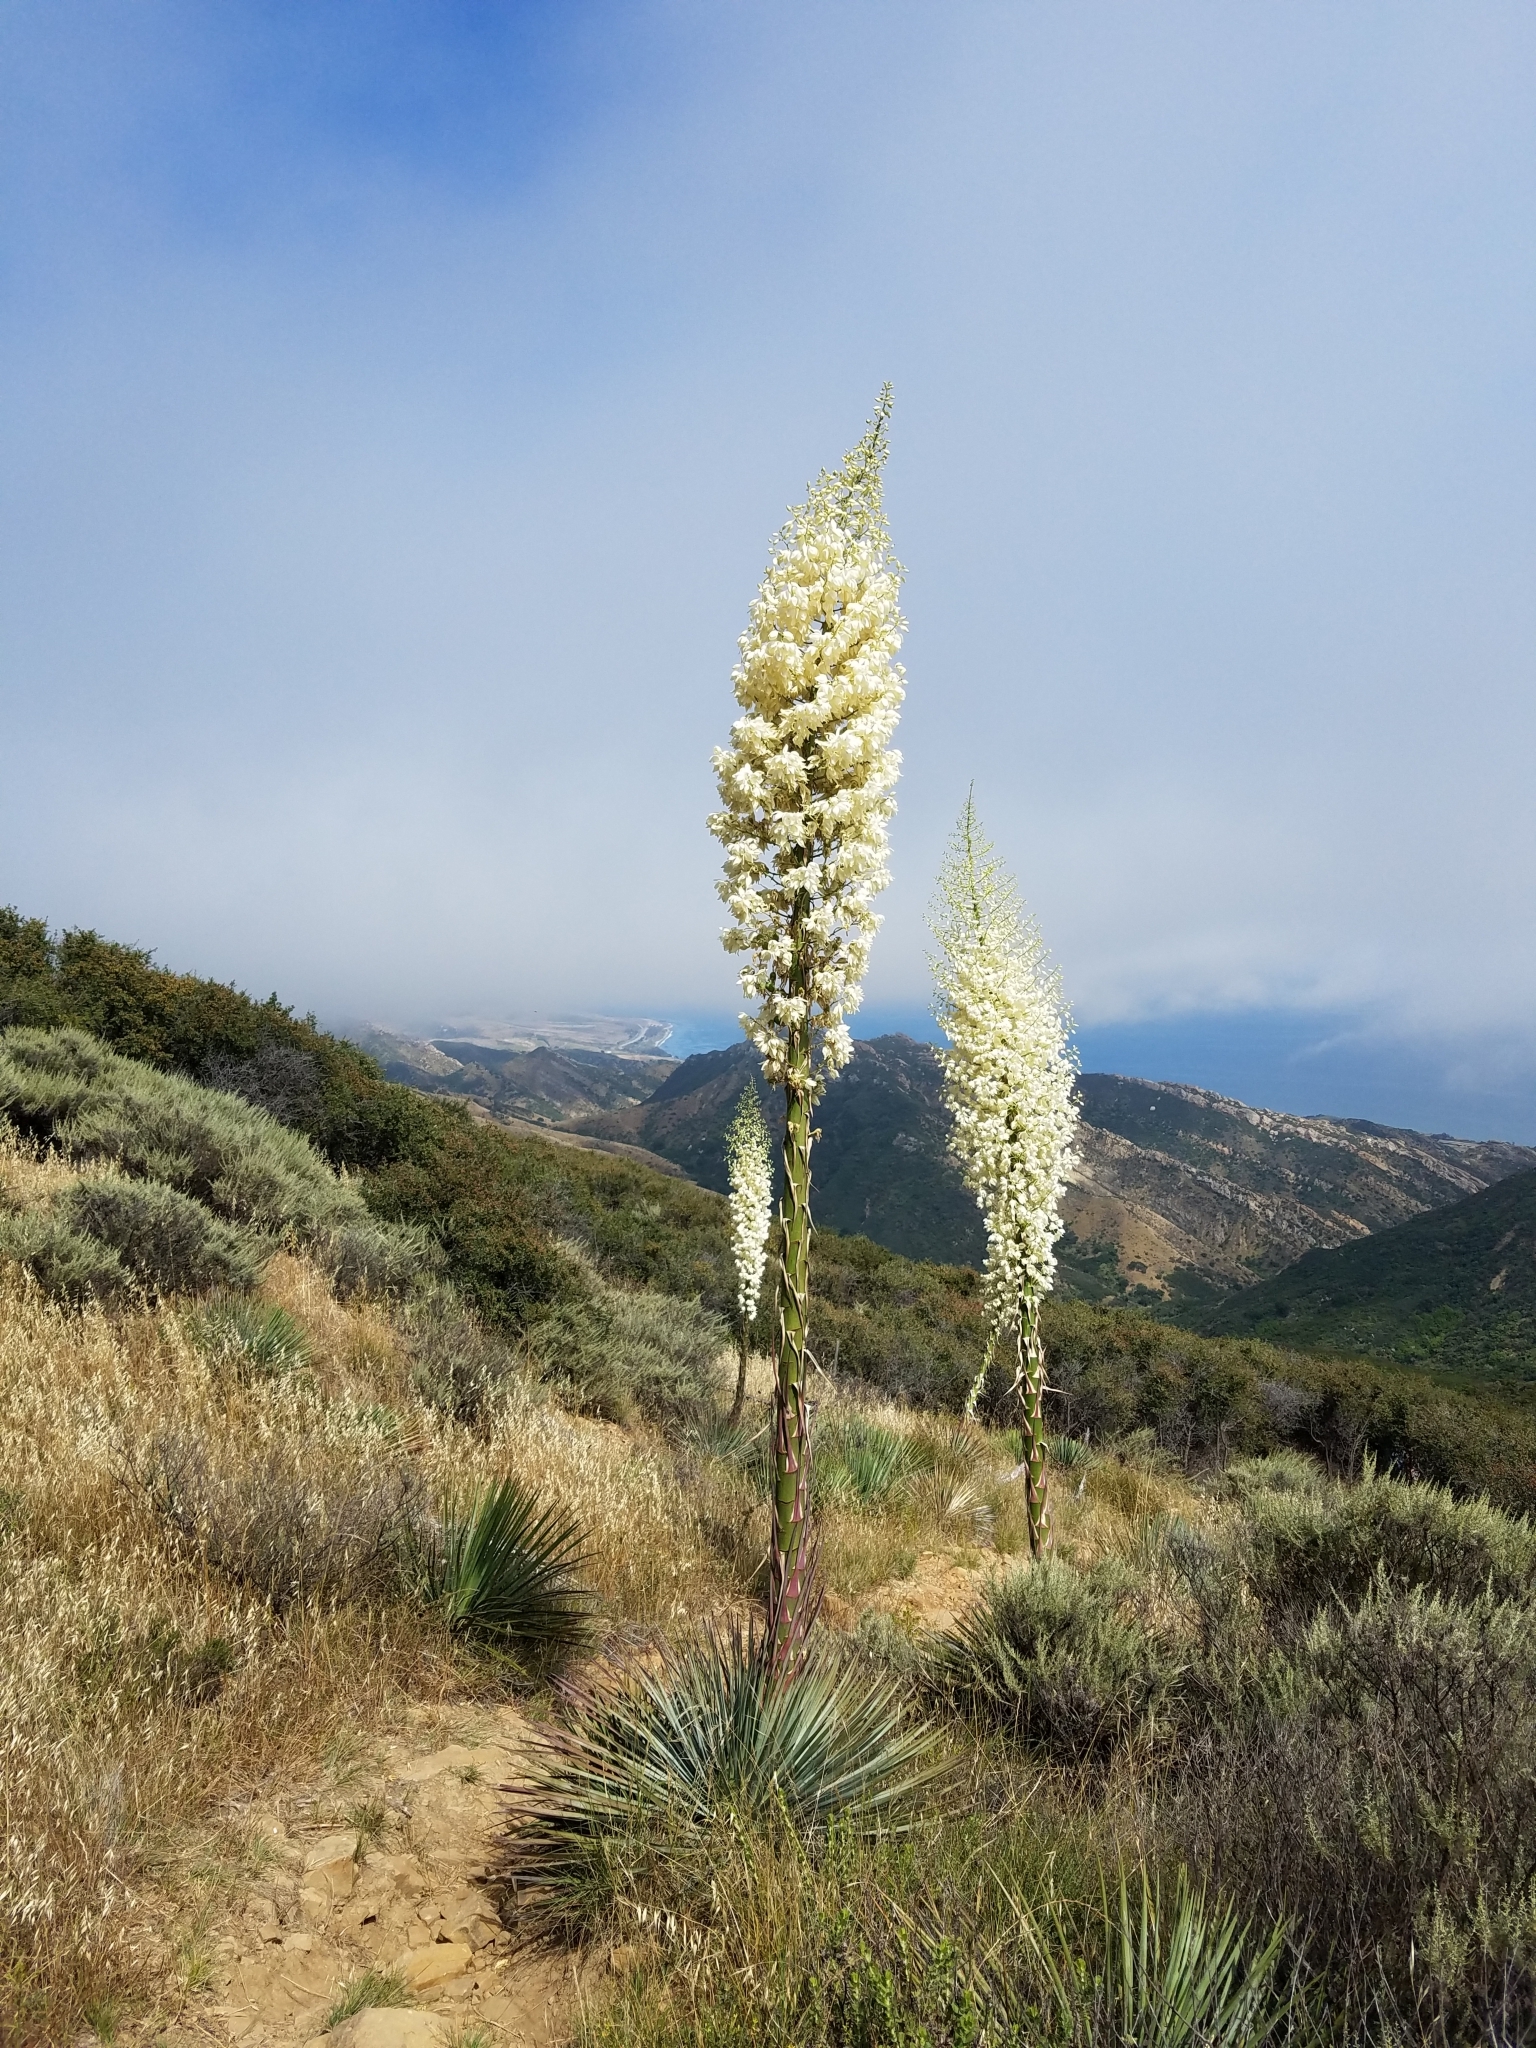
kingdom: Plantae
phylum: Tracheophyta
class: Liliopsida
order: Asparagales
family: Asparagaceae
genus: Hesperoyucca
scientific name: Hesperoyucca whipplei
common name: Our lord's-candle
